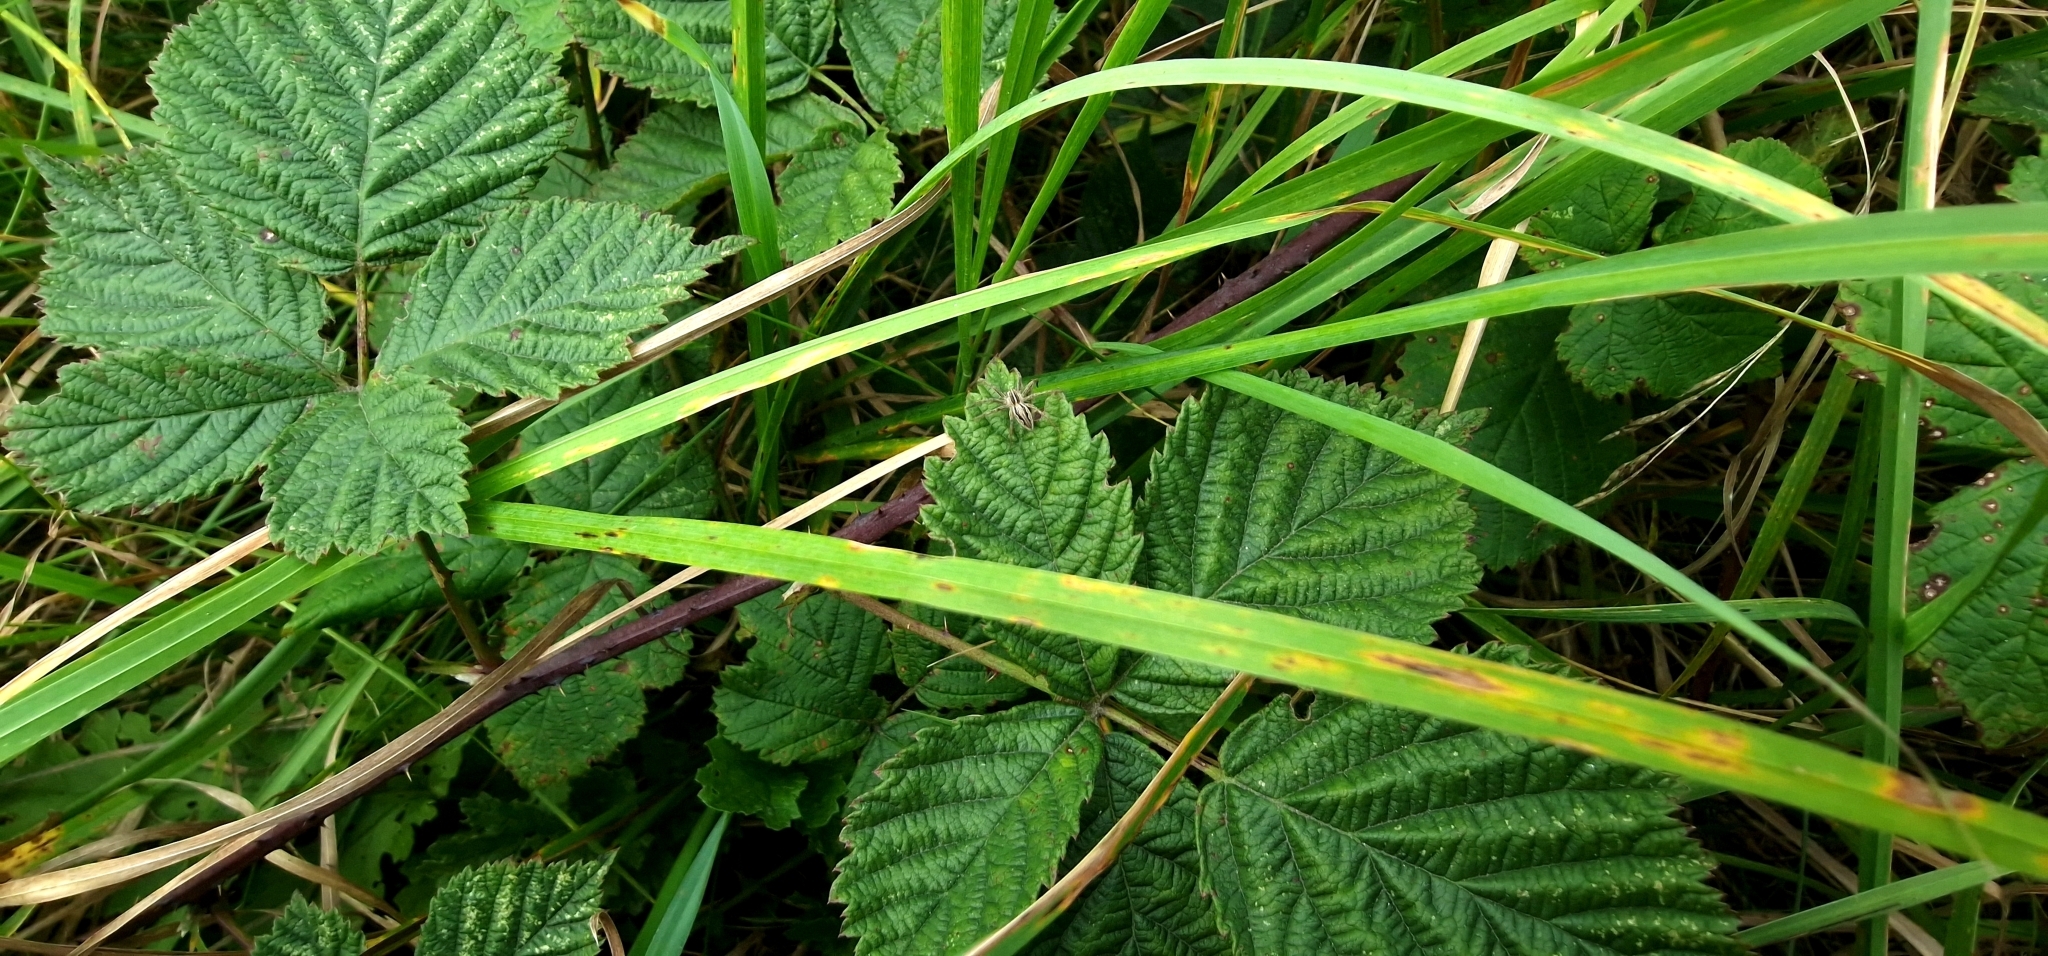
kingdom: Animalia
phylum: Arthropoda
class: Arachnida
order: Araneae
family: Pisauridae
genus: Pisaura
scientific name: Pisaura mirabilis
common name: Tent spider
